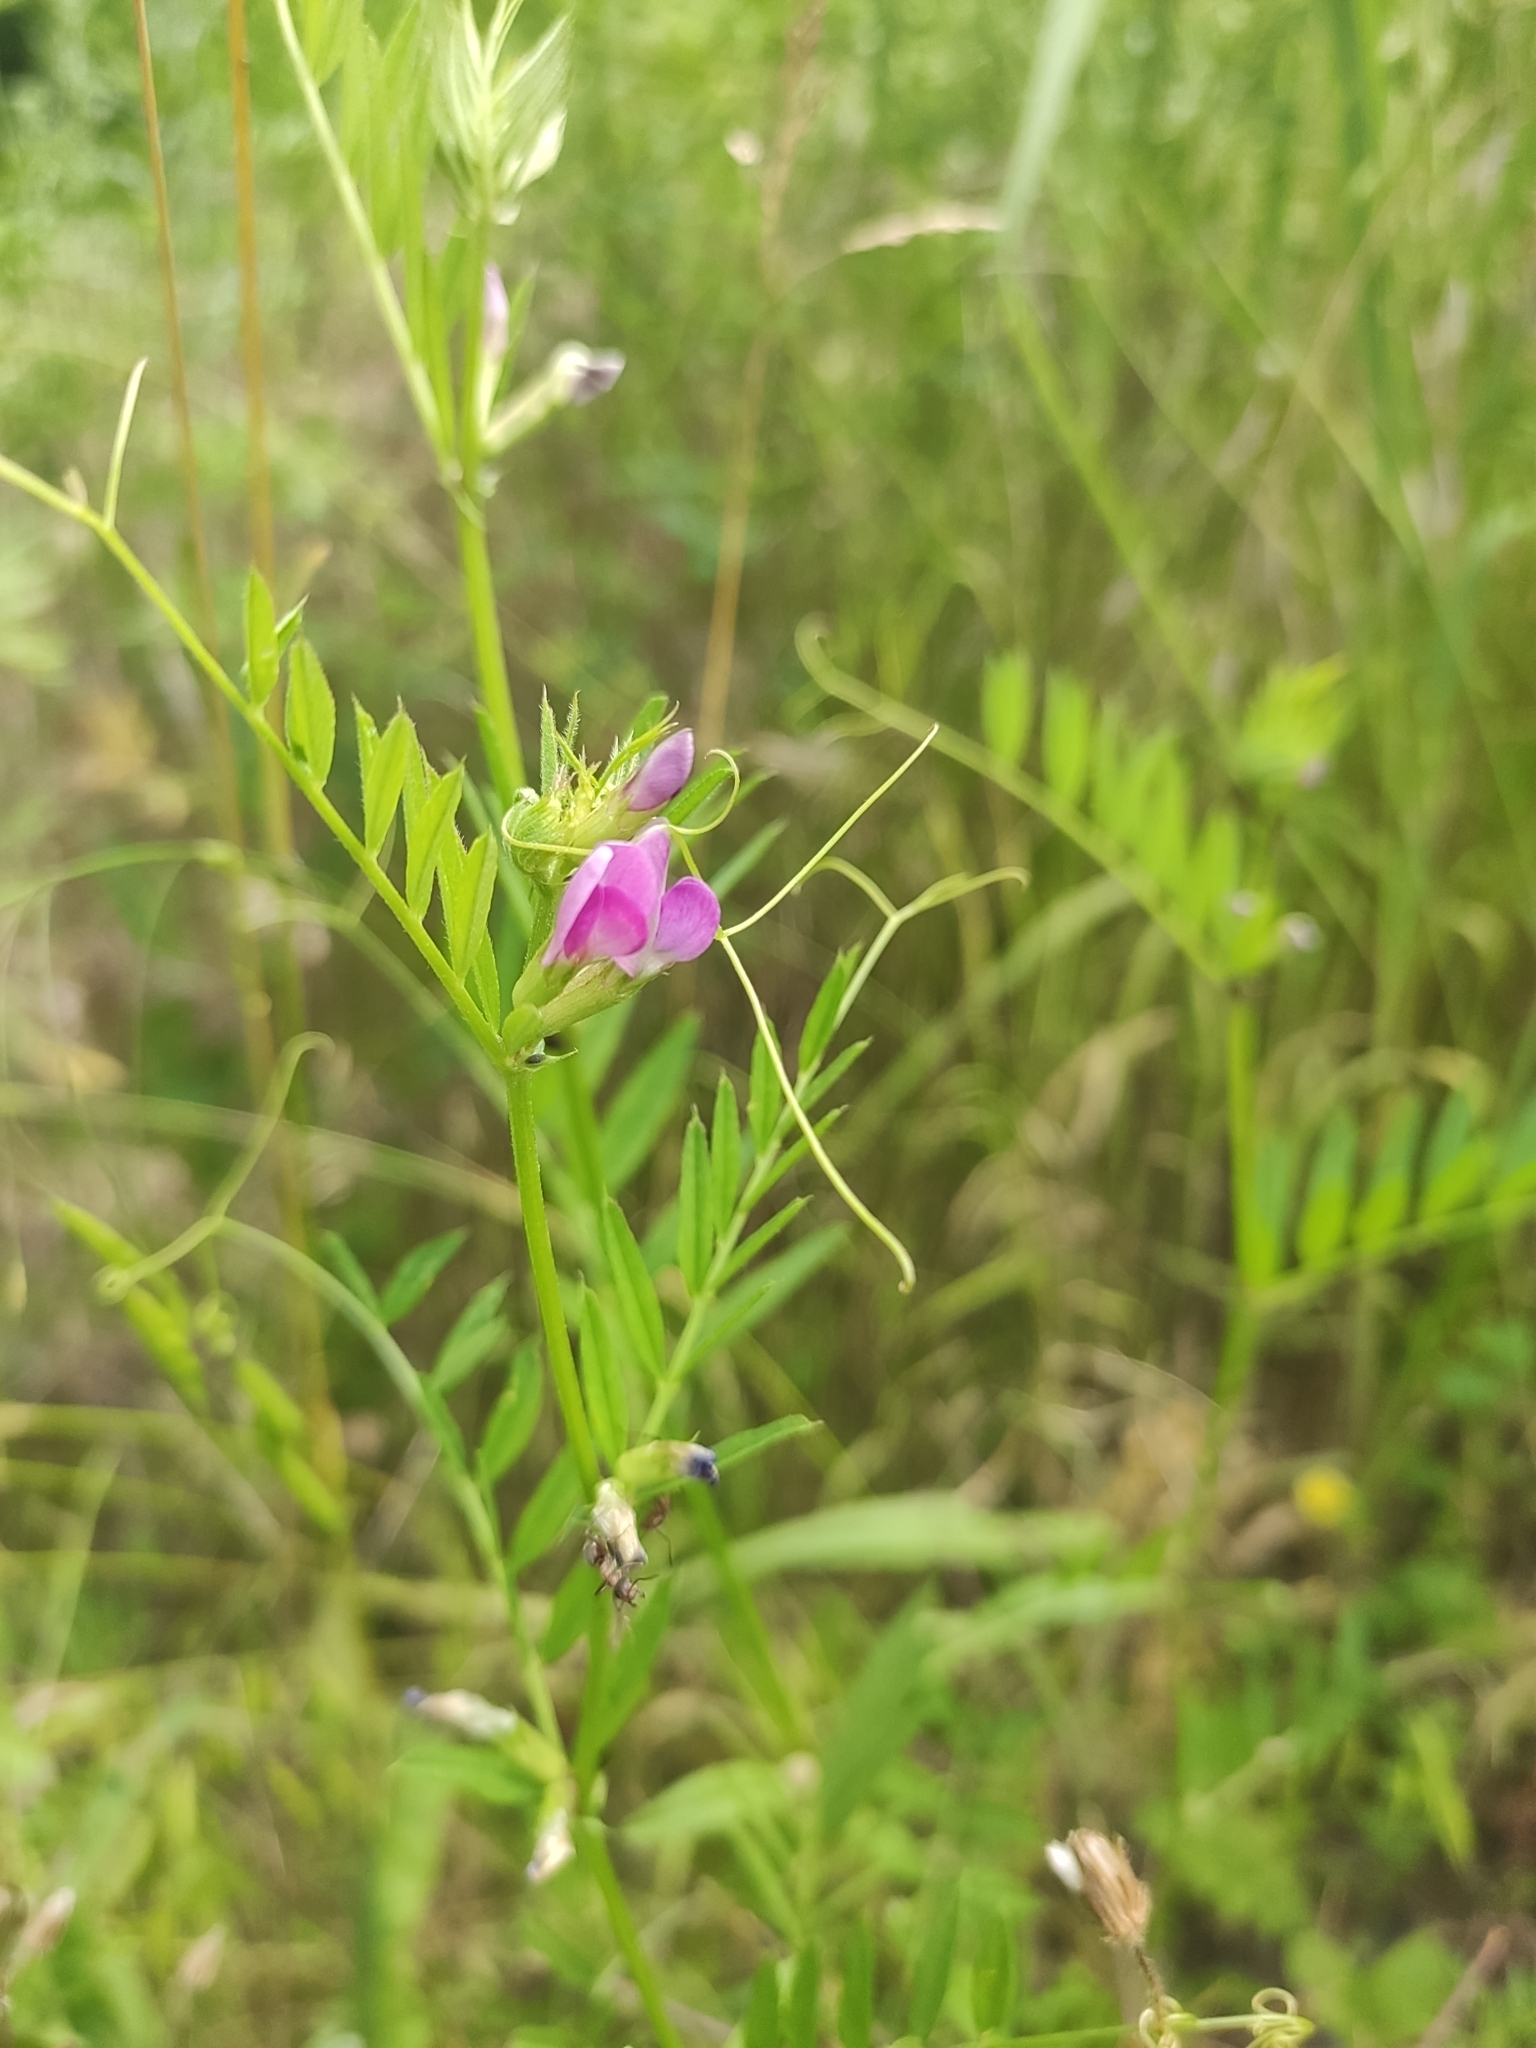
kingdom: Plantae
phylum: Tracheophyta
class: Magnoliopsida
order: Fabales
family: Fabaceae
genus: Vicia
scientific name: Vicia sativa
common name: Garden vetch
